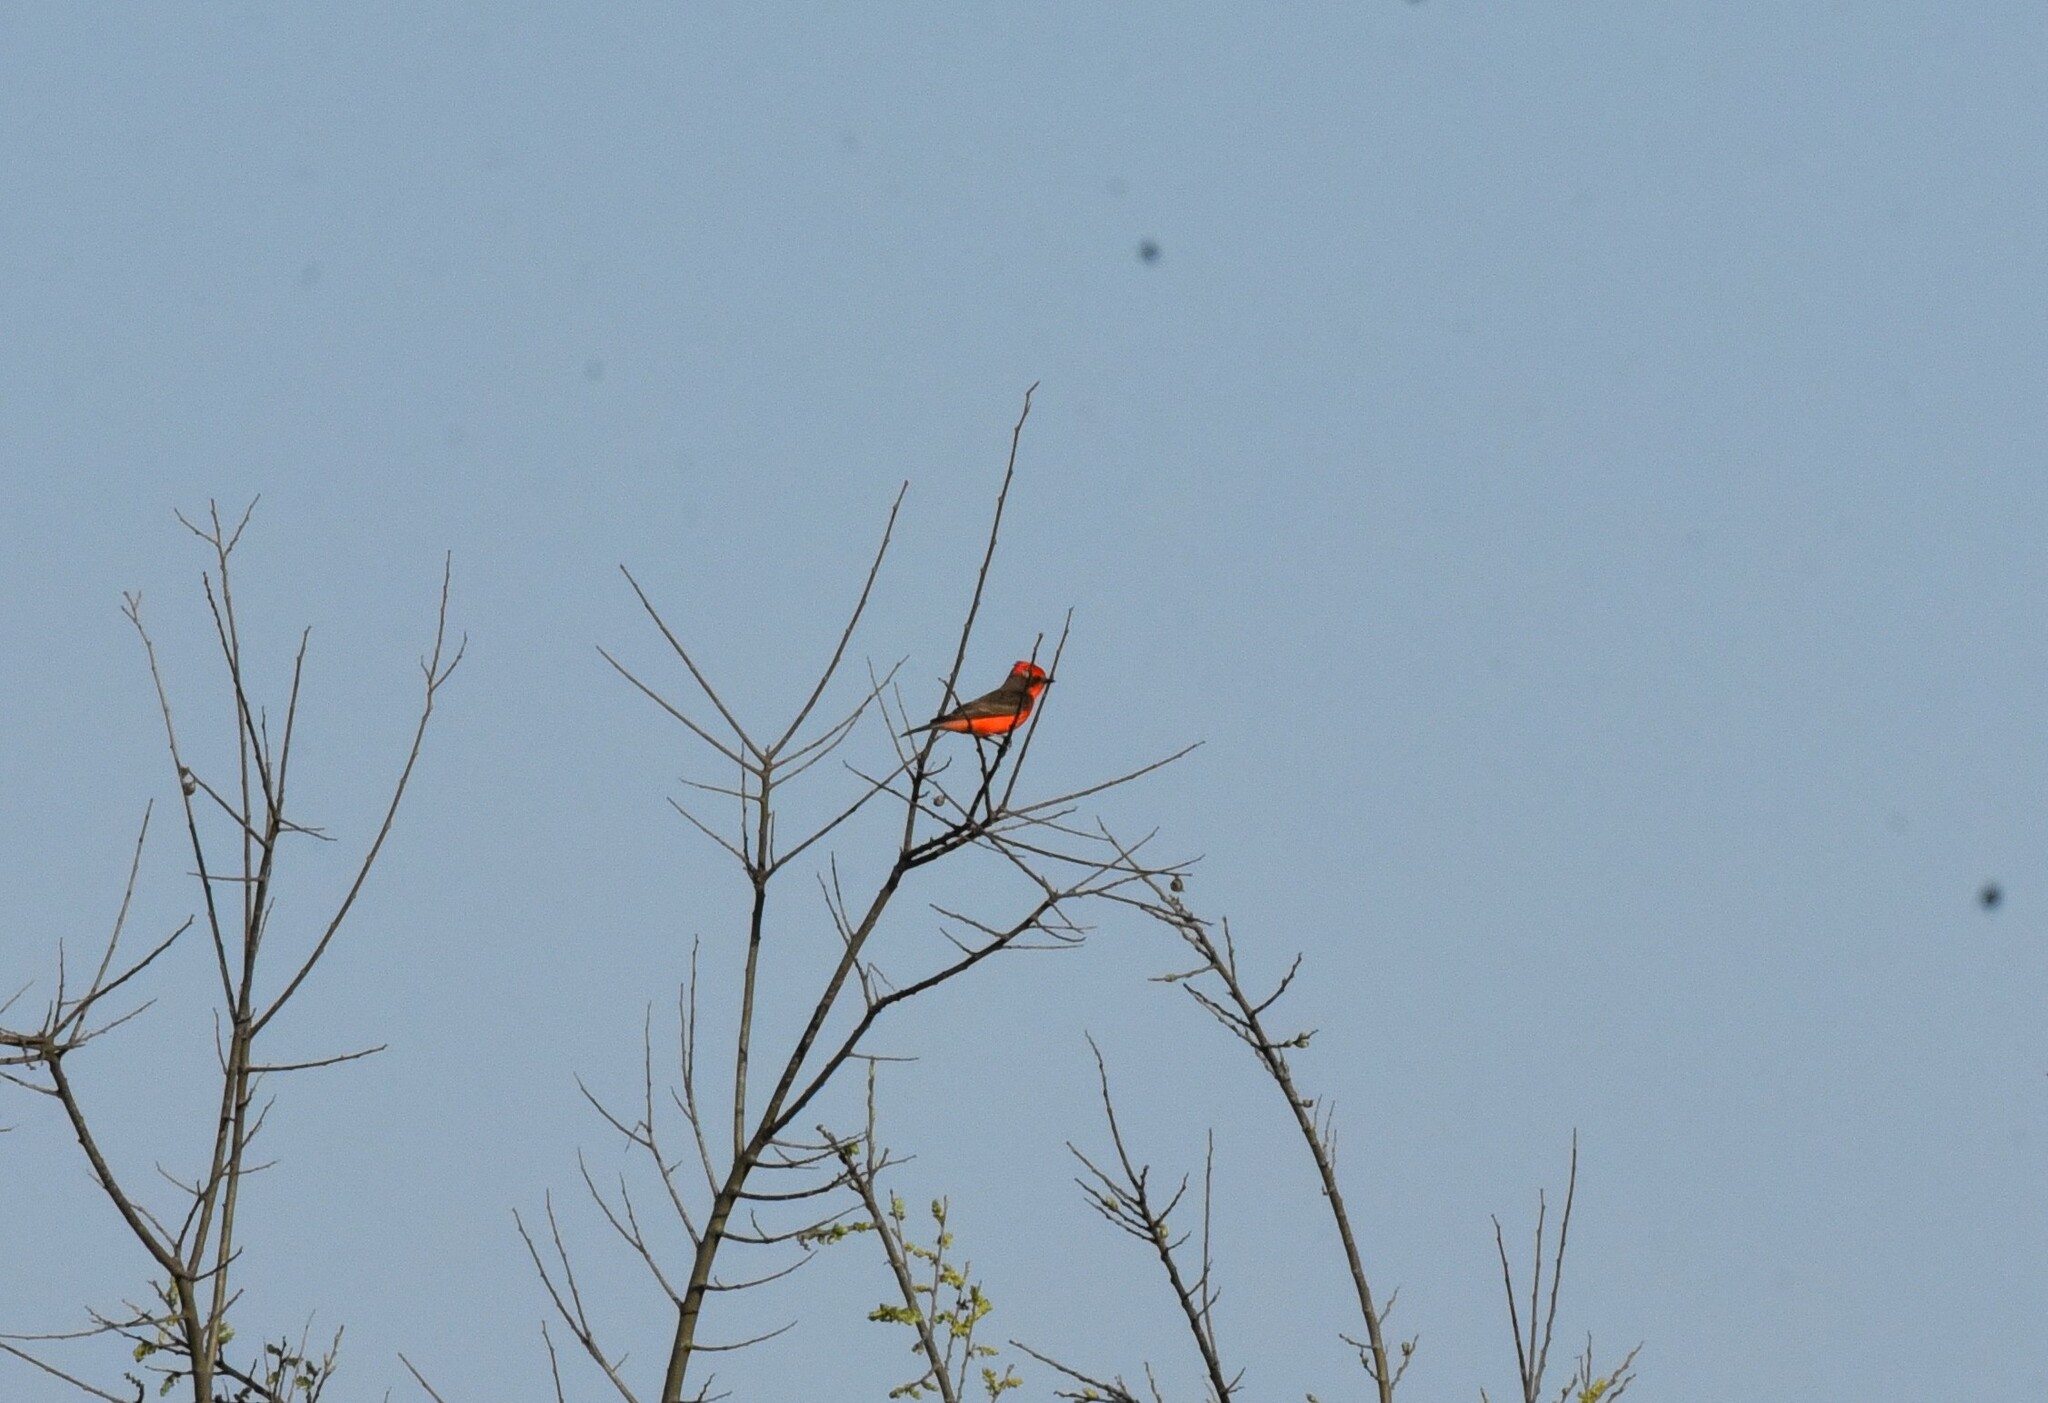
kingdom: Animalia
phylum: Chordata
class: Aves
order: Passeriformes
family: Tyrannidae
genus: Pyrocephalus
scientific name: Pyrocephalus rubinus
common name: Vermilion flycatcher
